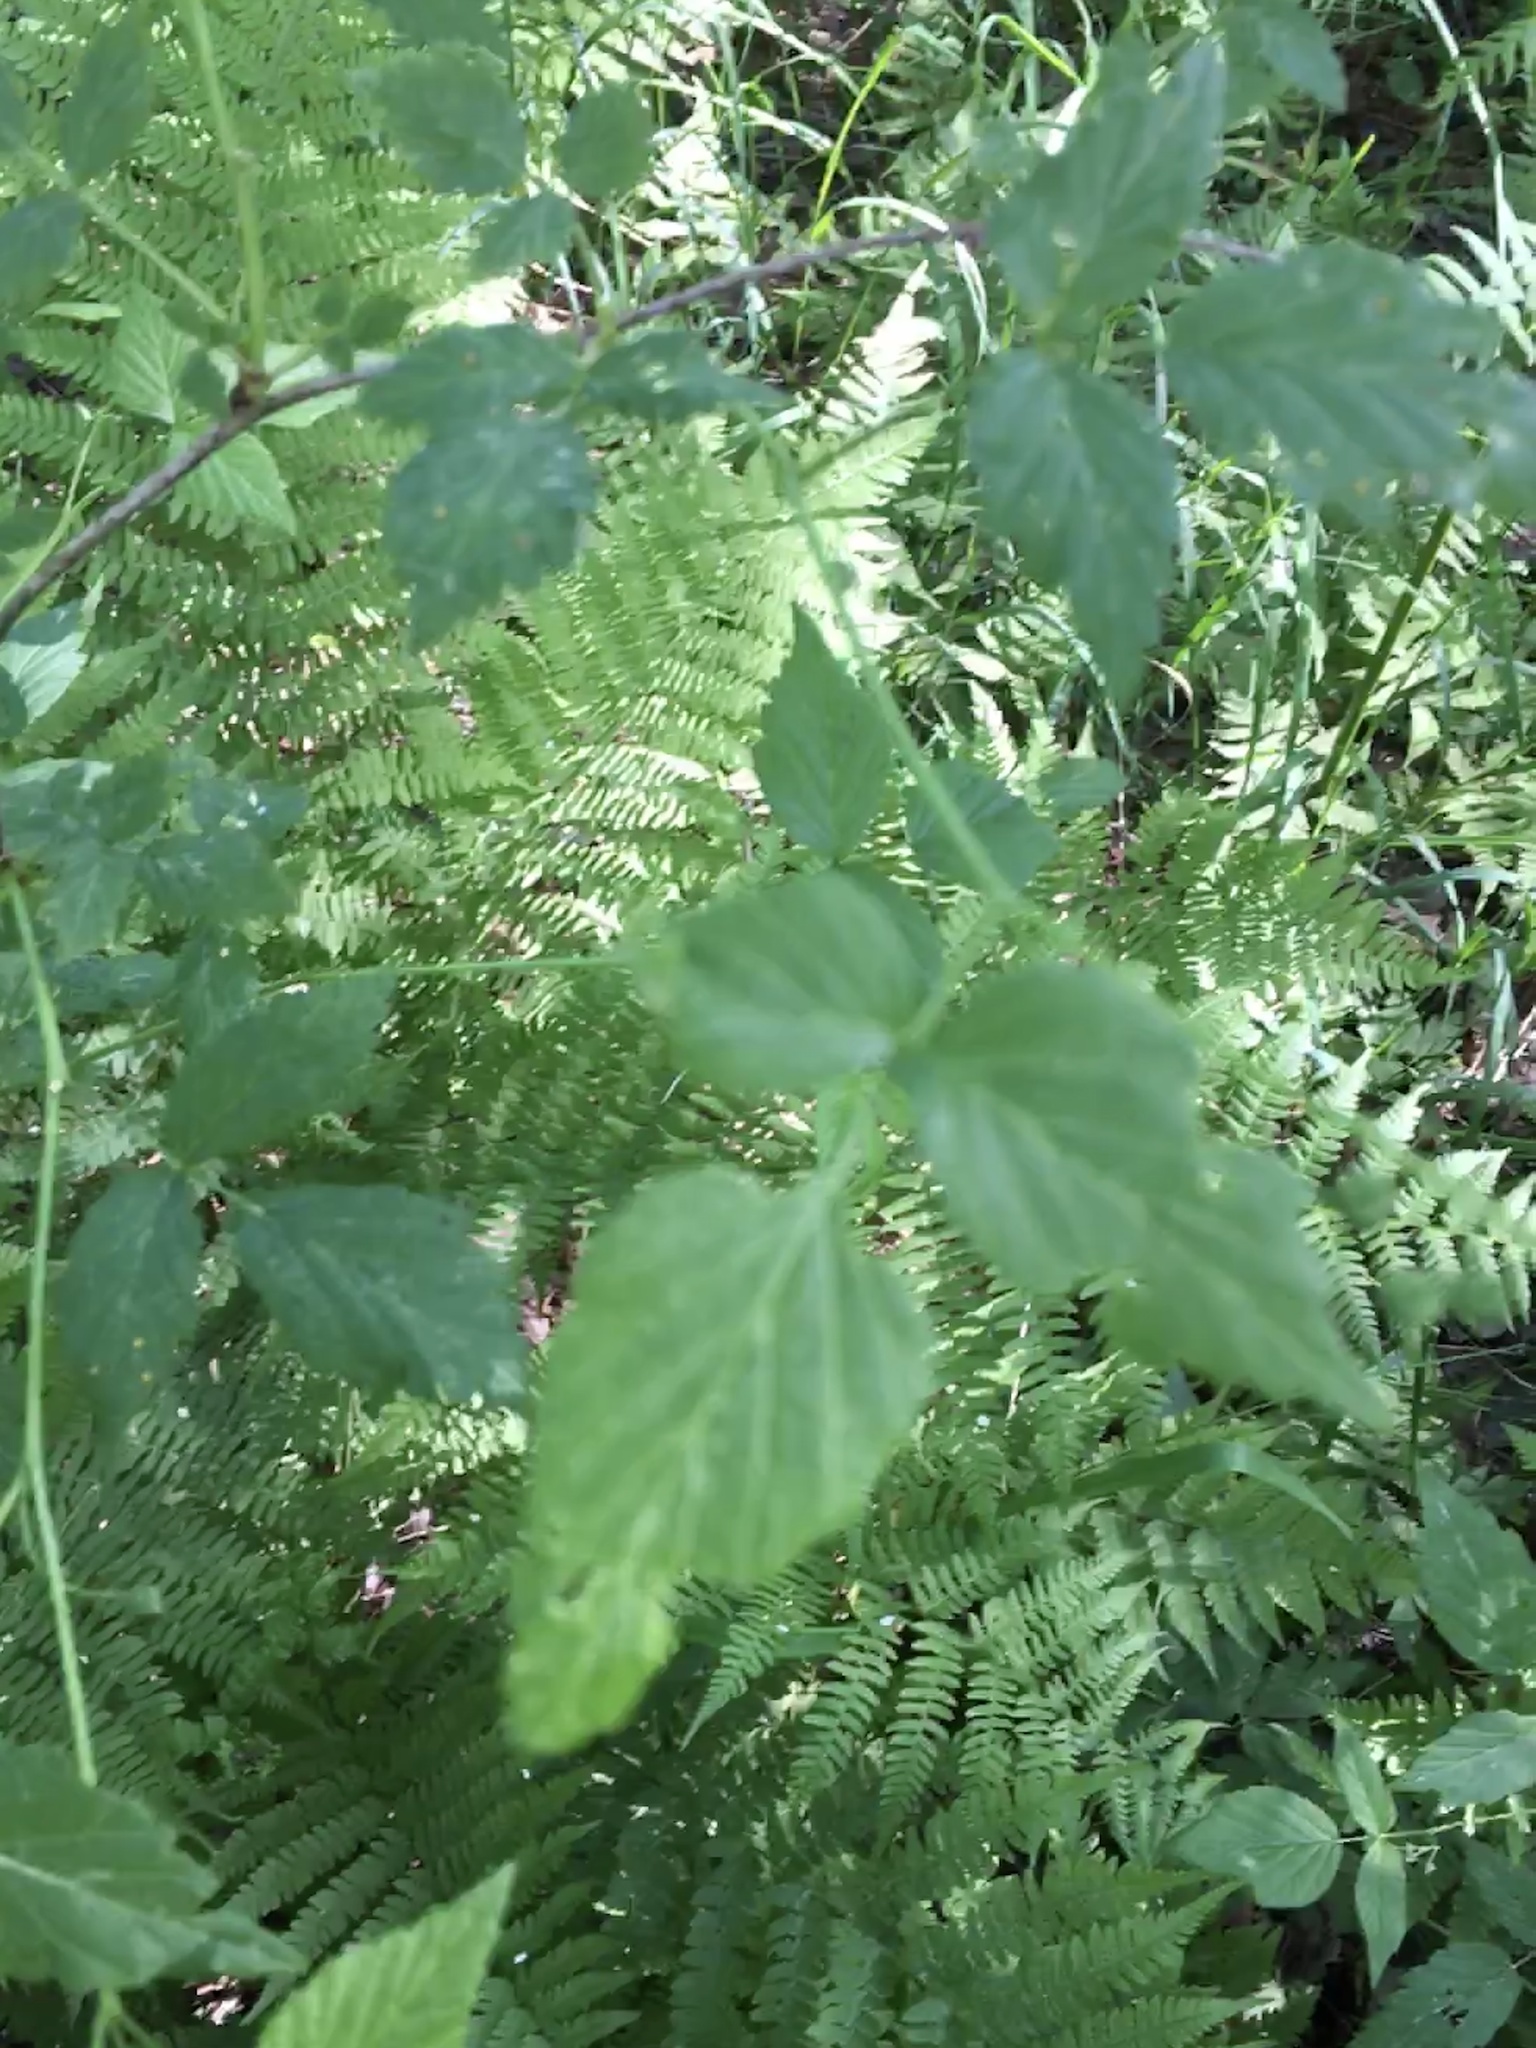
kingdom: Plantae
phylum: Tracheophyta
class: Magnoliopsida
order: Rosales
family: Rosaceae
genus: Rubus
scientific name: Rubus idaeus
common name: Raspberry
